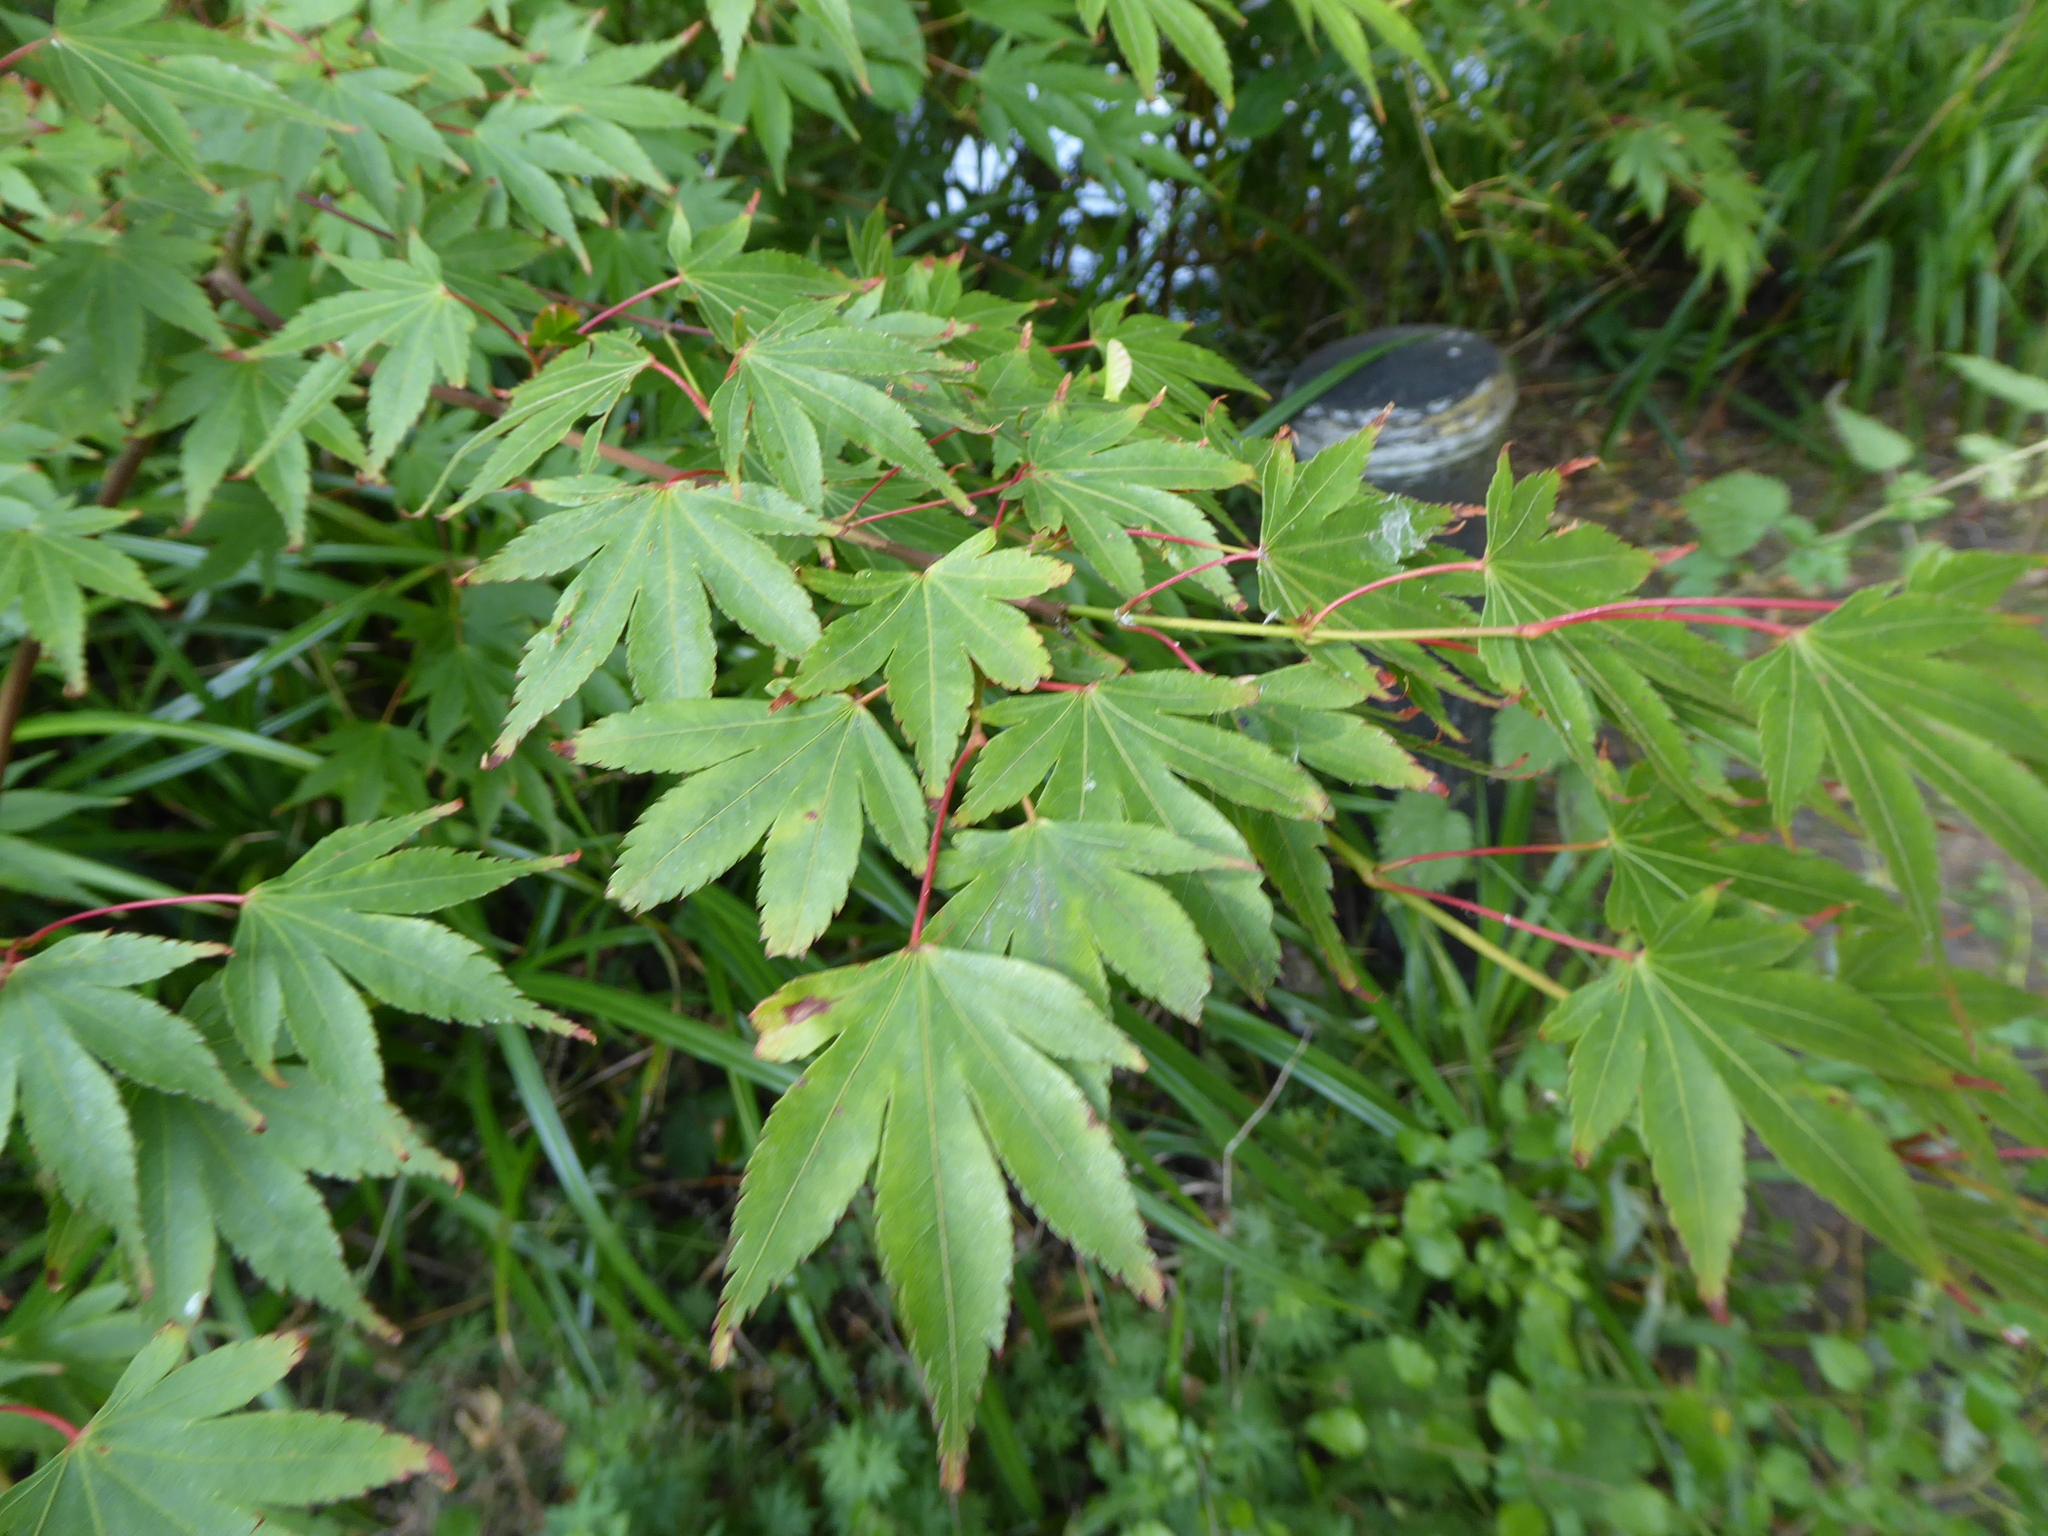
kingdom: Plantae
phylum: Tracheophyta
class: Magnoliopsida
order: Sapindales
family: Sapindaceae
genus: Acer
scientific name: Acer palmatum
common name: Japanese maple
